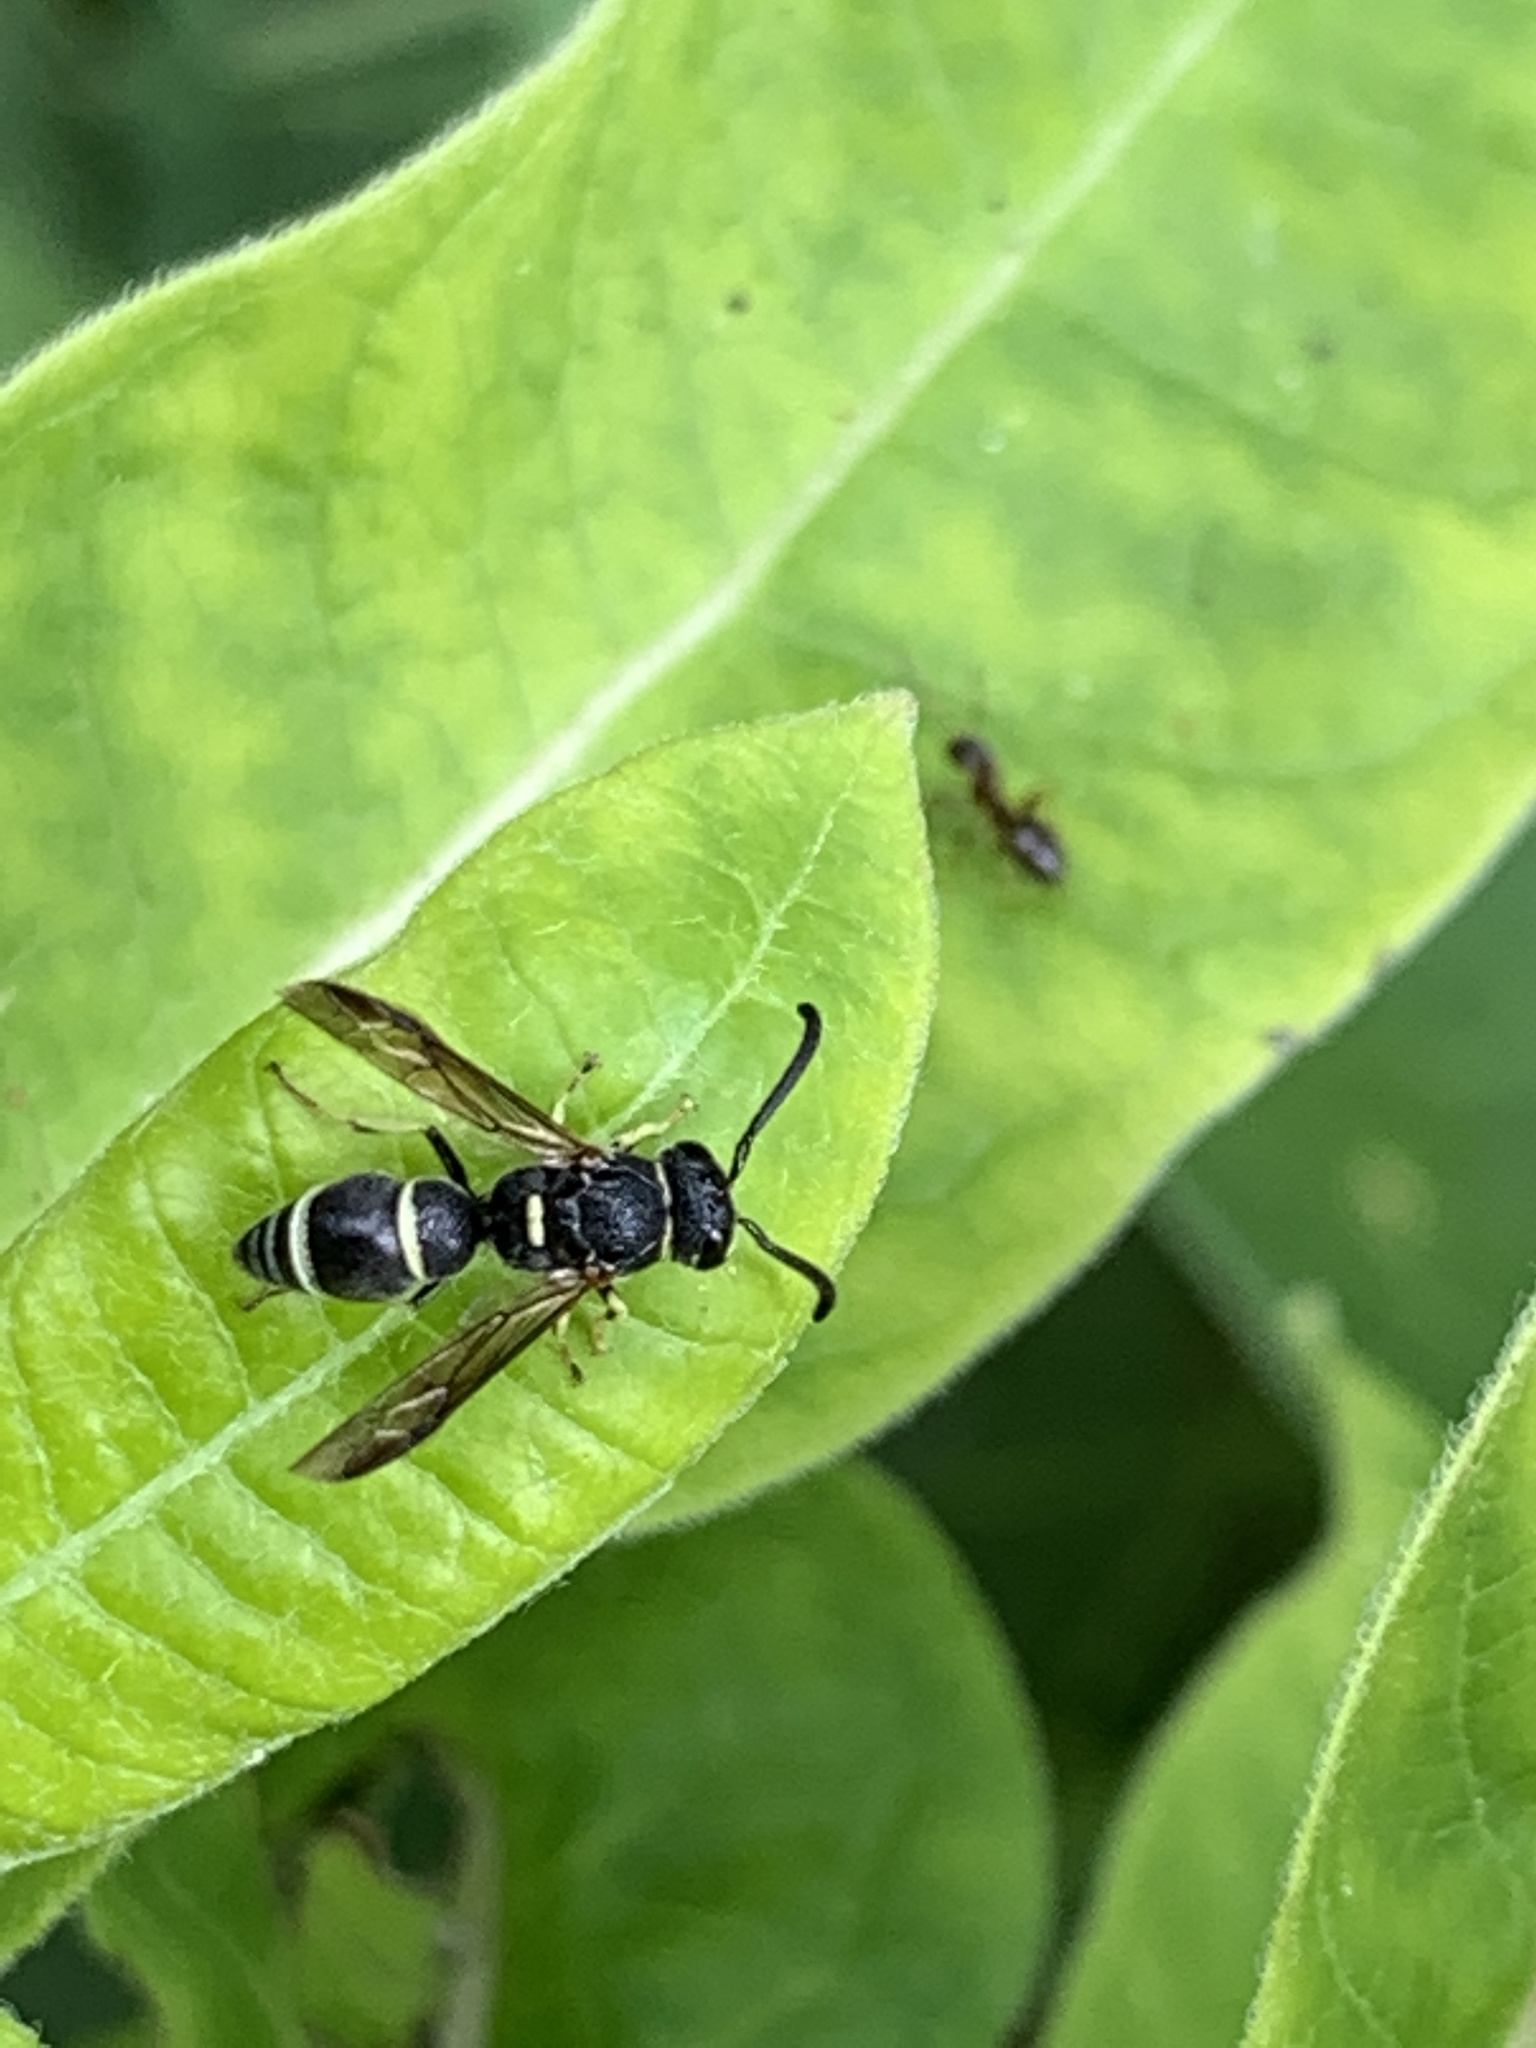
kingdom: Animalia
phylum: Arthropoda
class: Insecta
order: Hymenoptera
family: Eumenidae
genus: Parancistrocerus
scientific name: Parancistrocerus pensylvanicus
